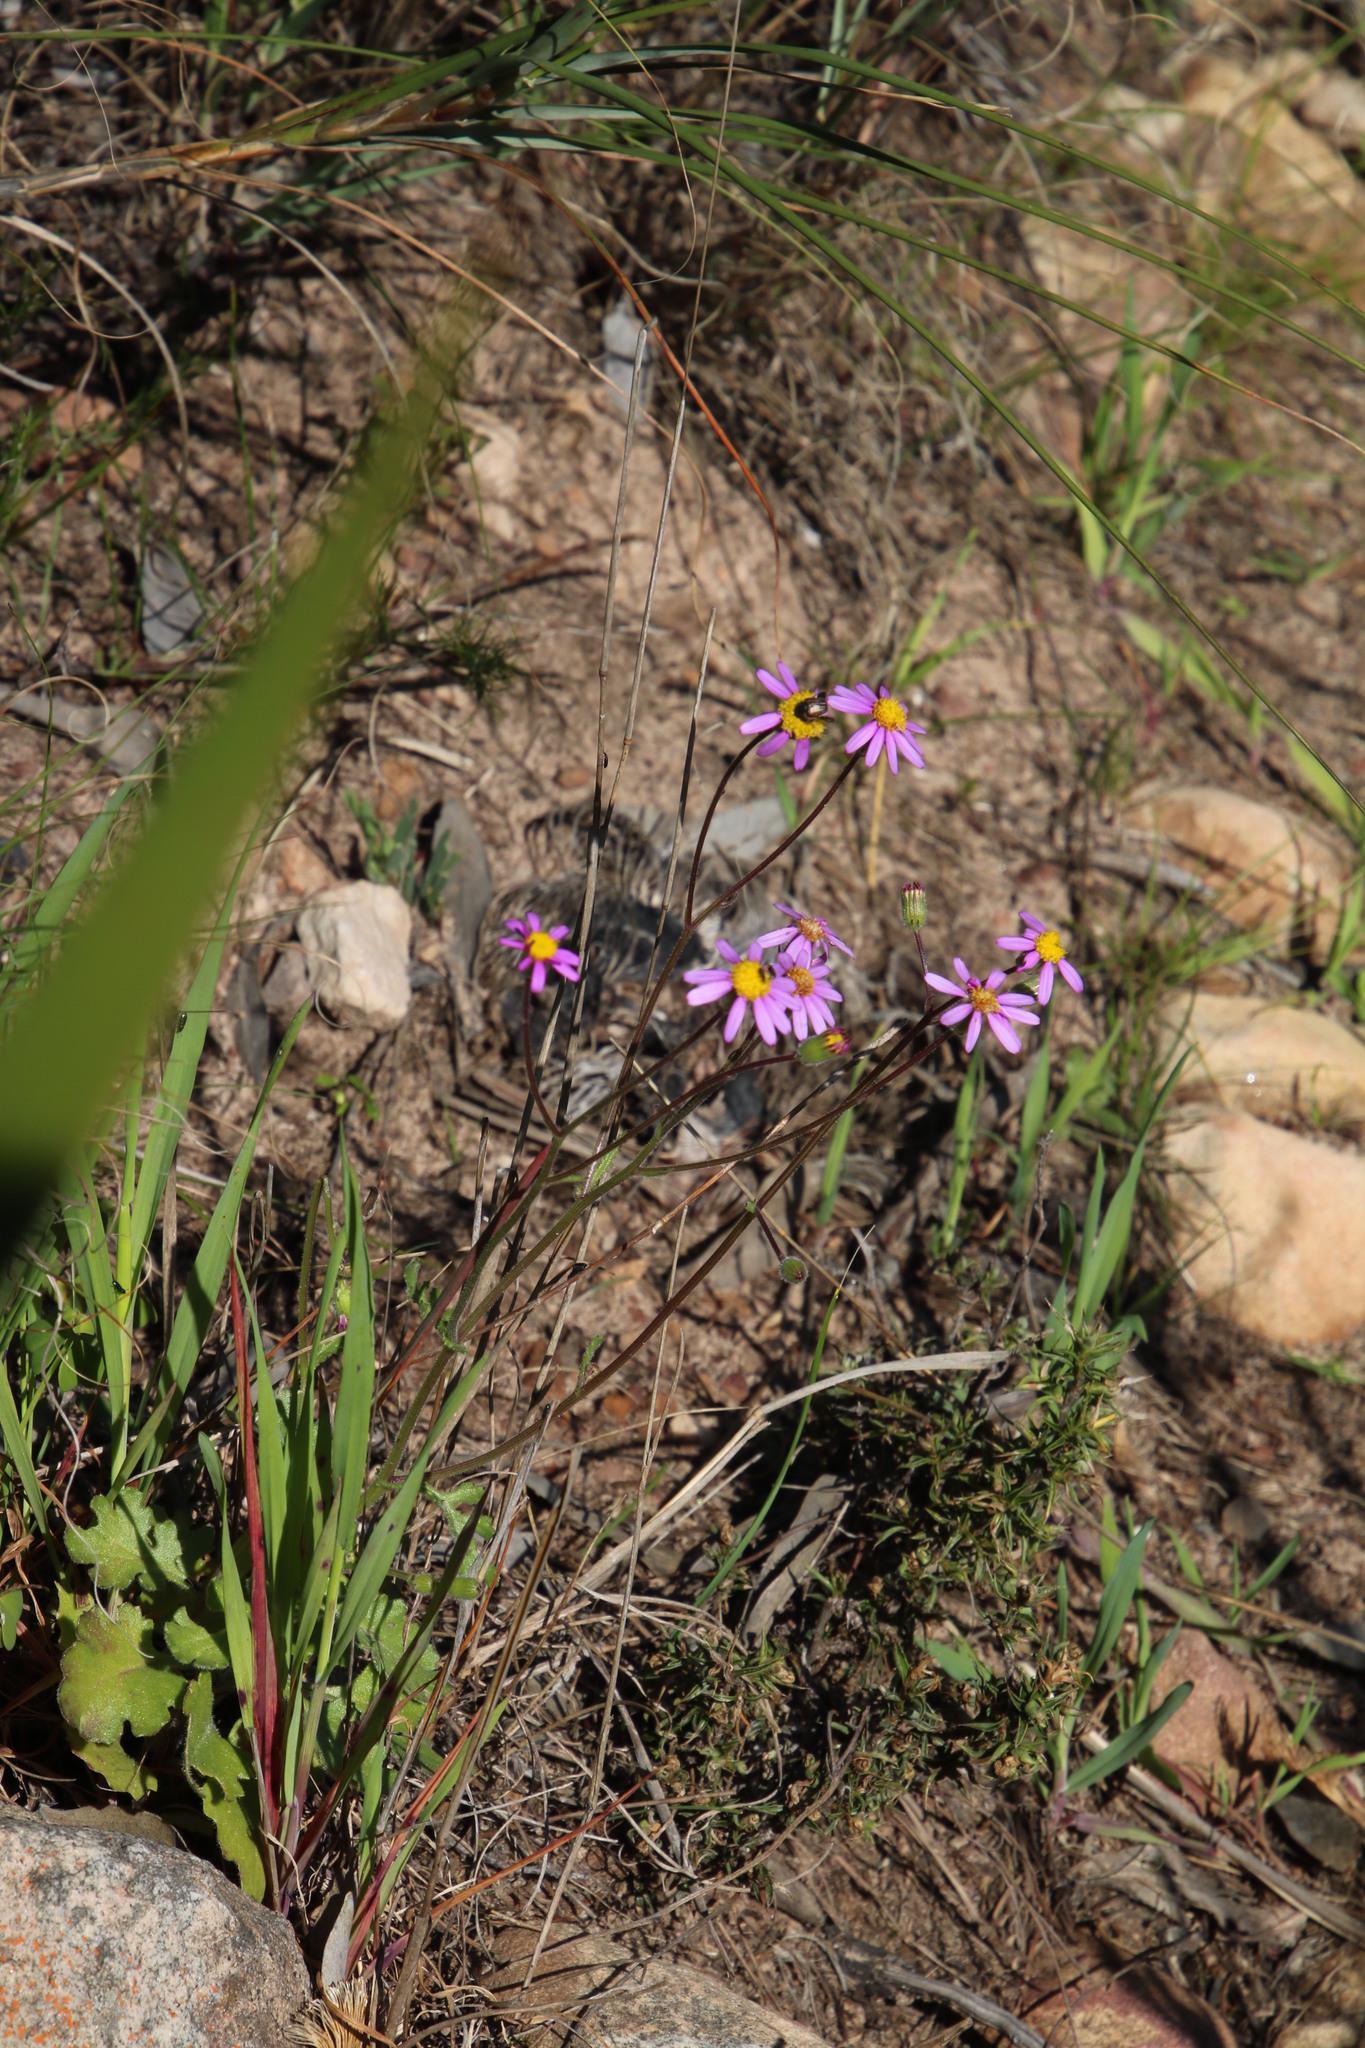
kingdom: Plantae
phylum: Tracheophyta
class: Magnoliopsida
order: Asterales
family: Asteraceae
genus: Senecio
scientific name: Senecio arenarius
